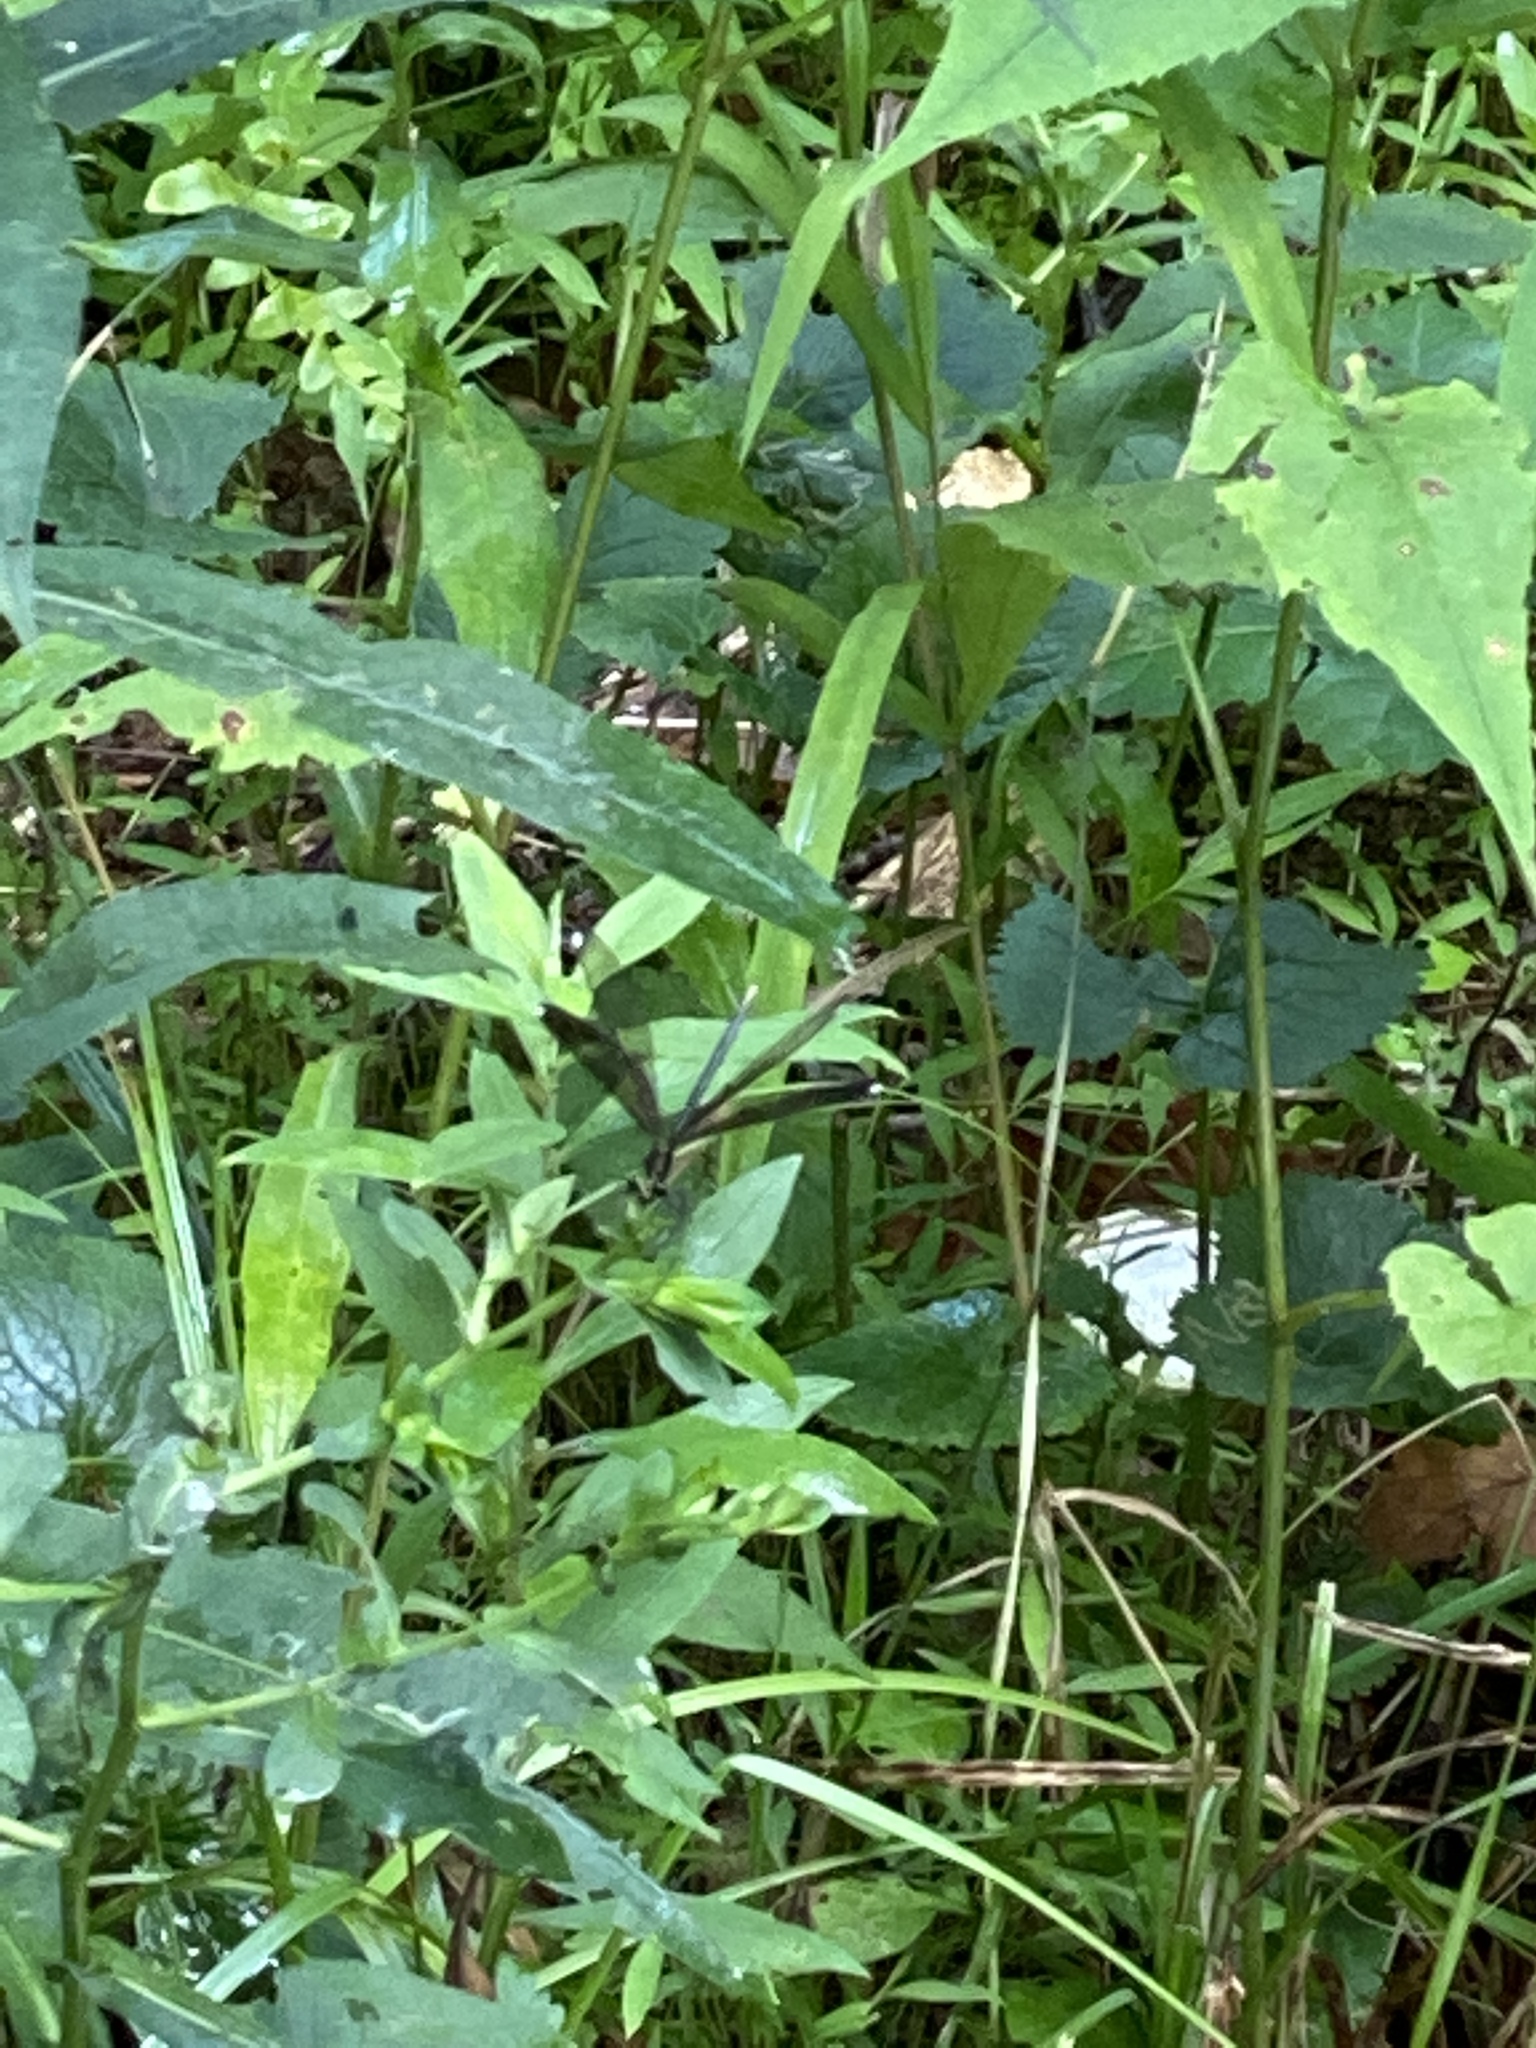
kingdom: Animalia
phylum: Arthropoda
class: Insecta
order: Odonata
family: Calopterygidae
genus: Calopteryx
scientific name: Calopteryx maculata
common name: Ebony jewelwing
